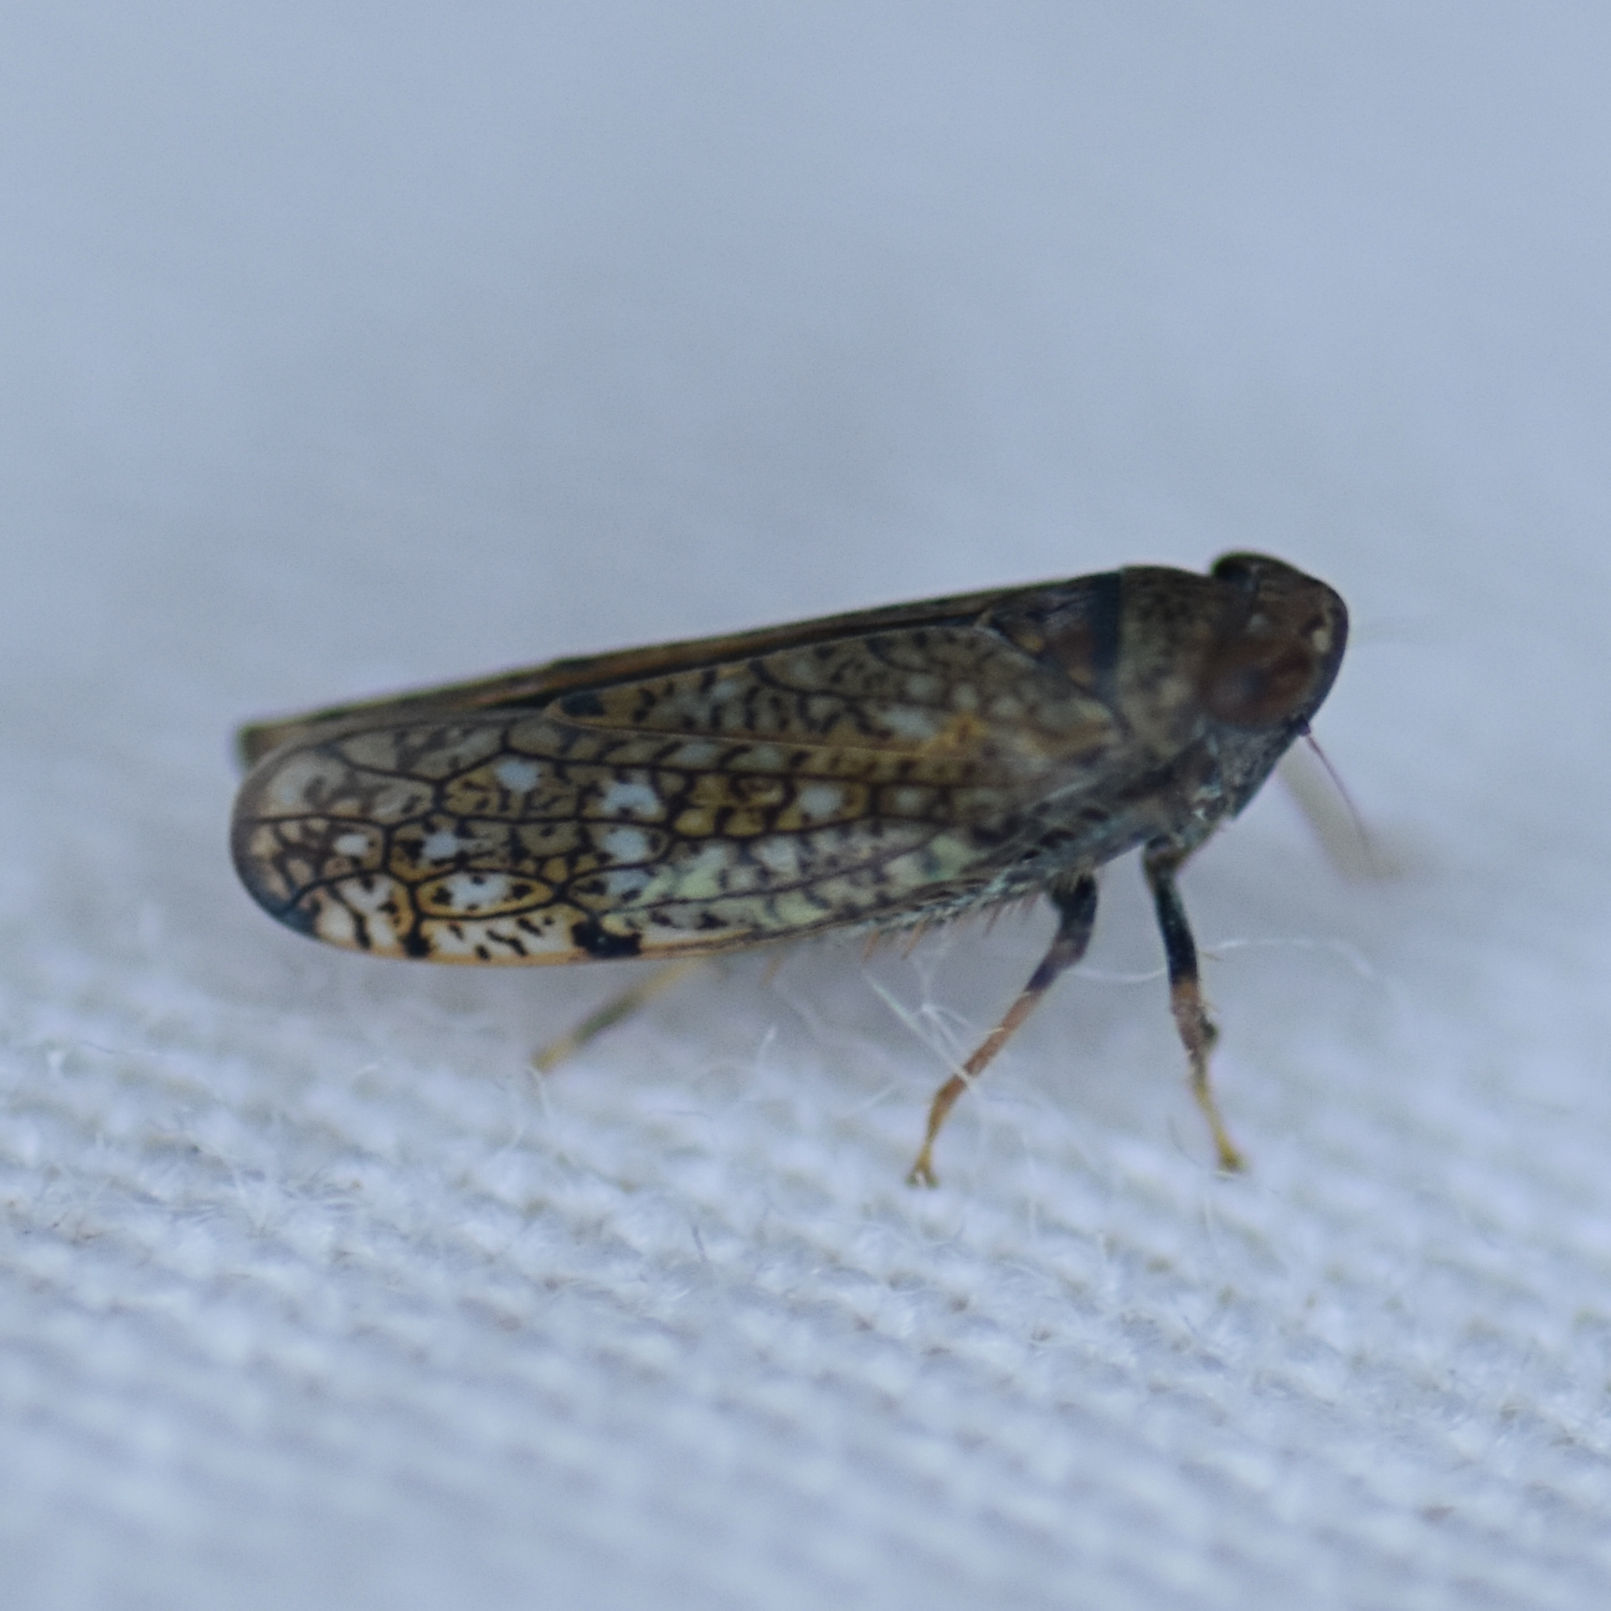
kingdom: Animalia
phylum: Arthropoda
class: Insecta
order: Hemiptera
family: Cicadellidae
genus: Orientus
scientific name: Orientus ishidae
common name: Japanese leafhopper
